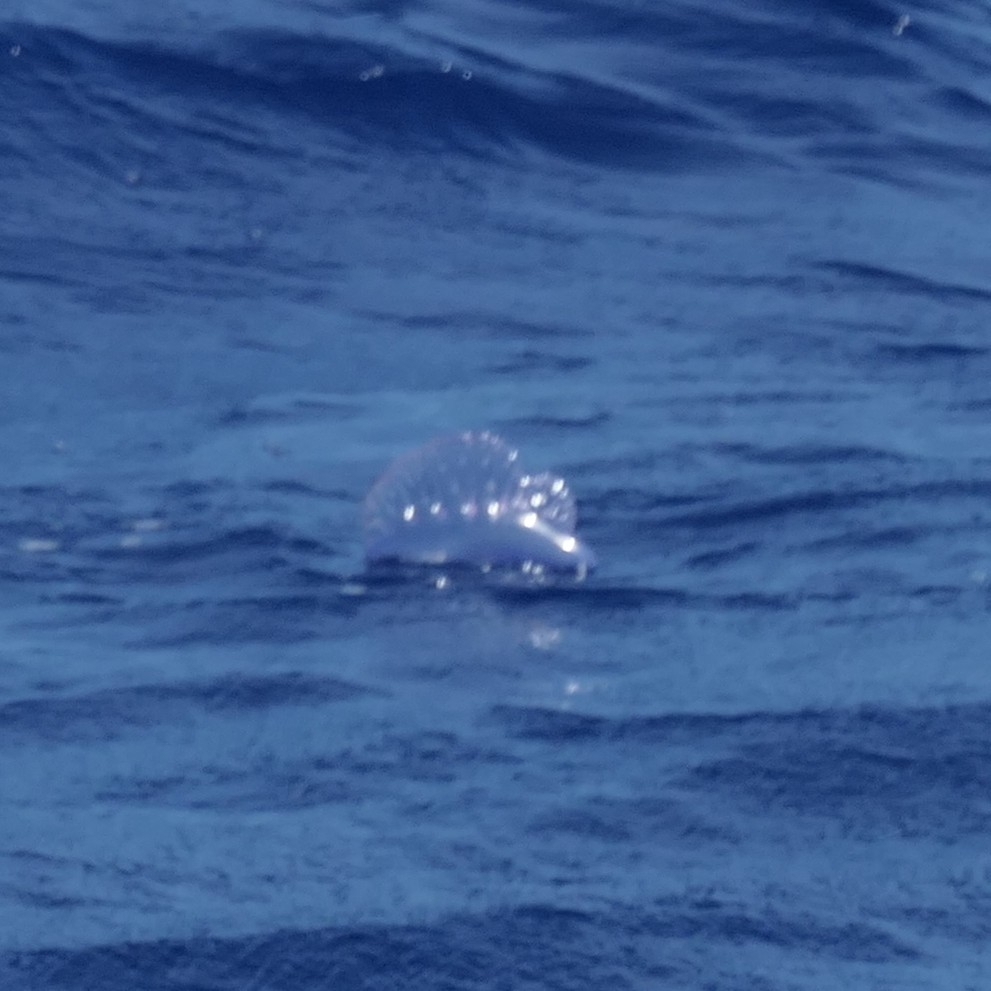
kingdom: Animalia
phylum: Cnidaria
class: Hydrozoa
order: Siphonophorae
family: Physaliidae
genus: Physalia
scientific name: Physalia physalis
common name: Portuguese man-of-war
